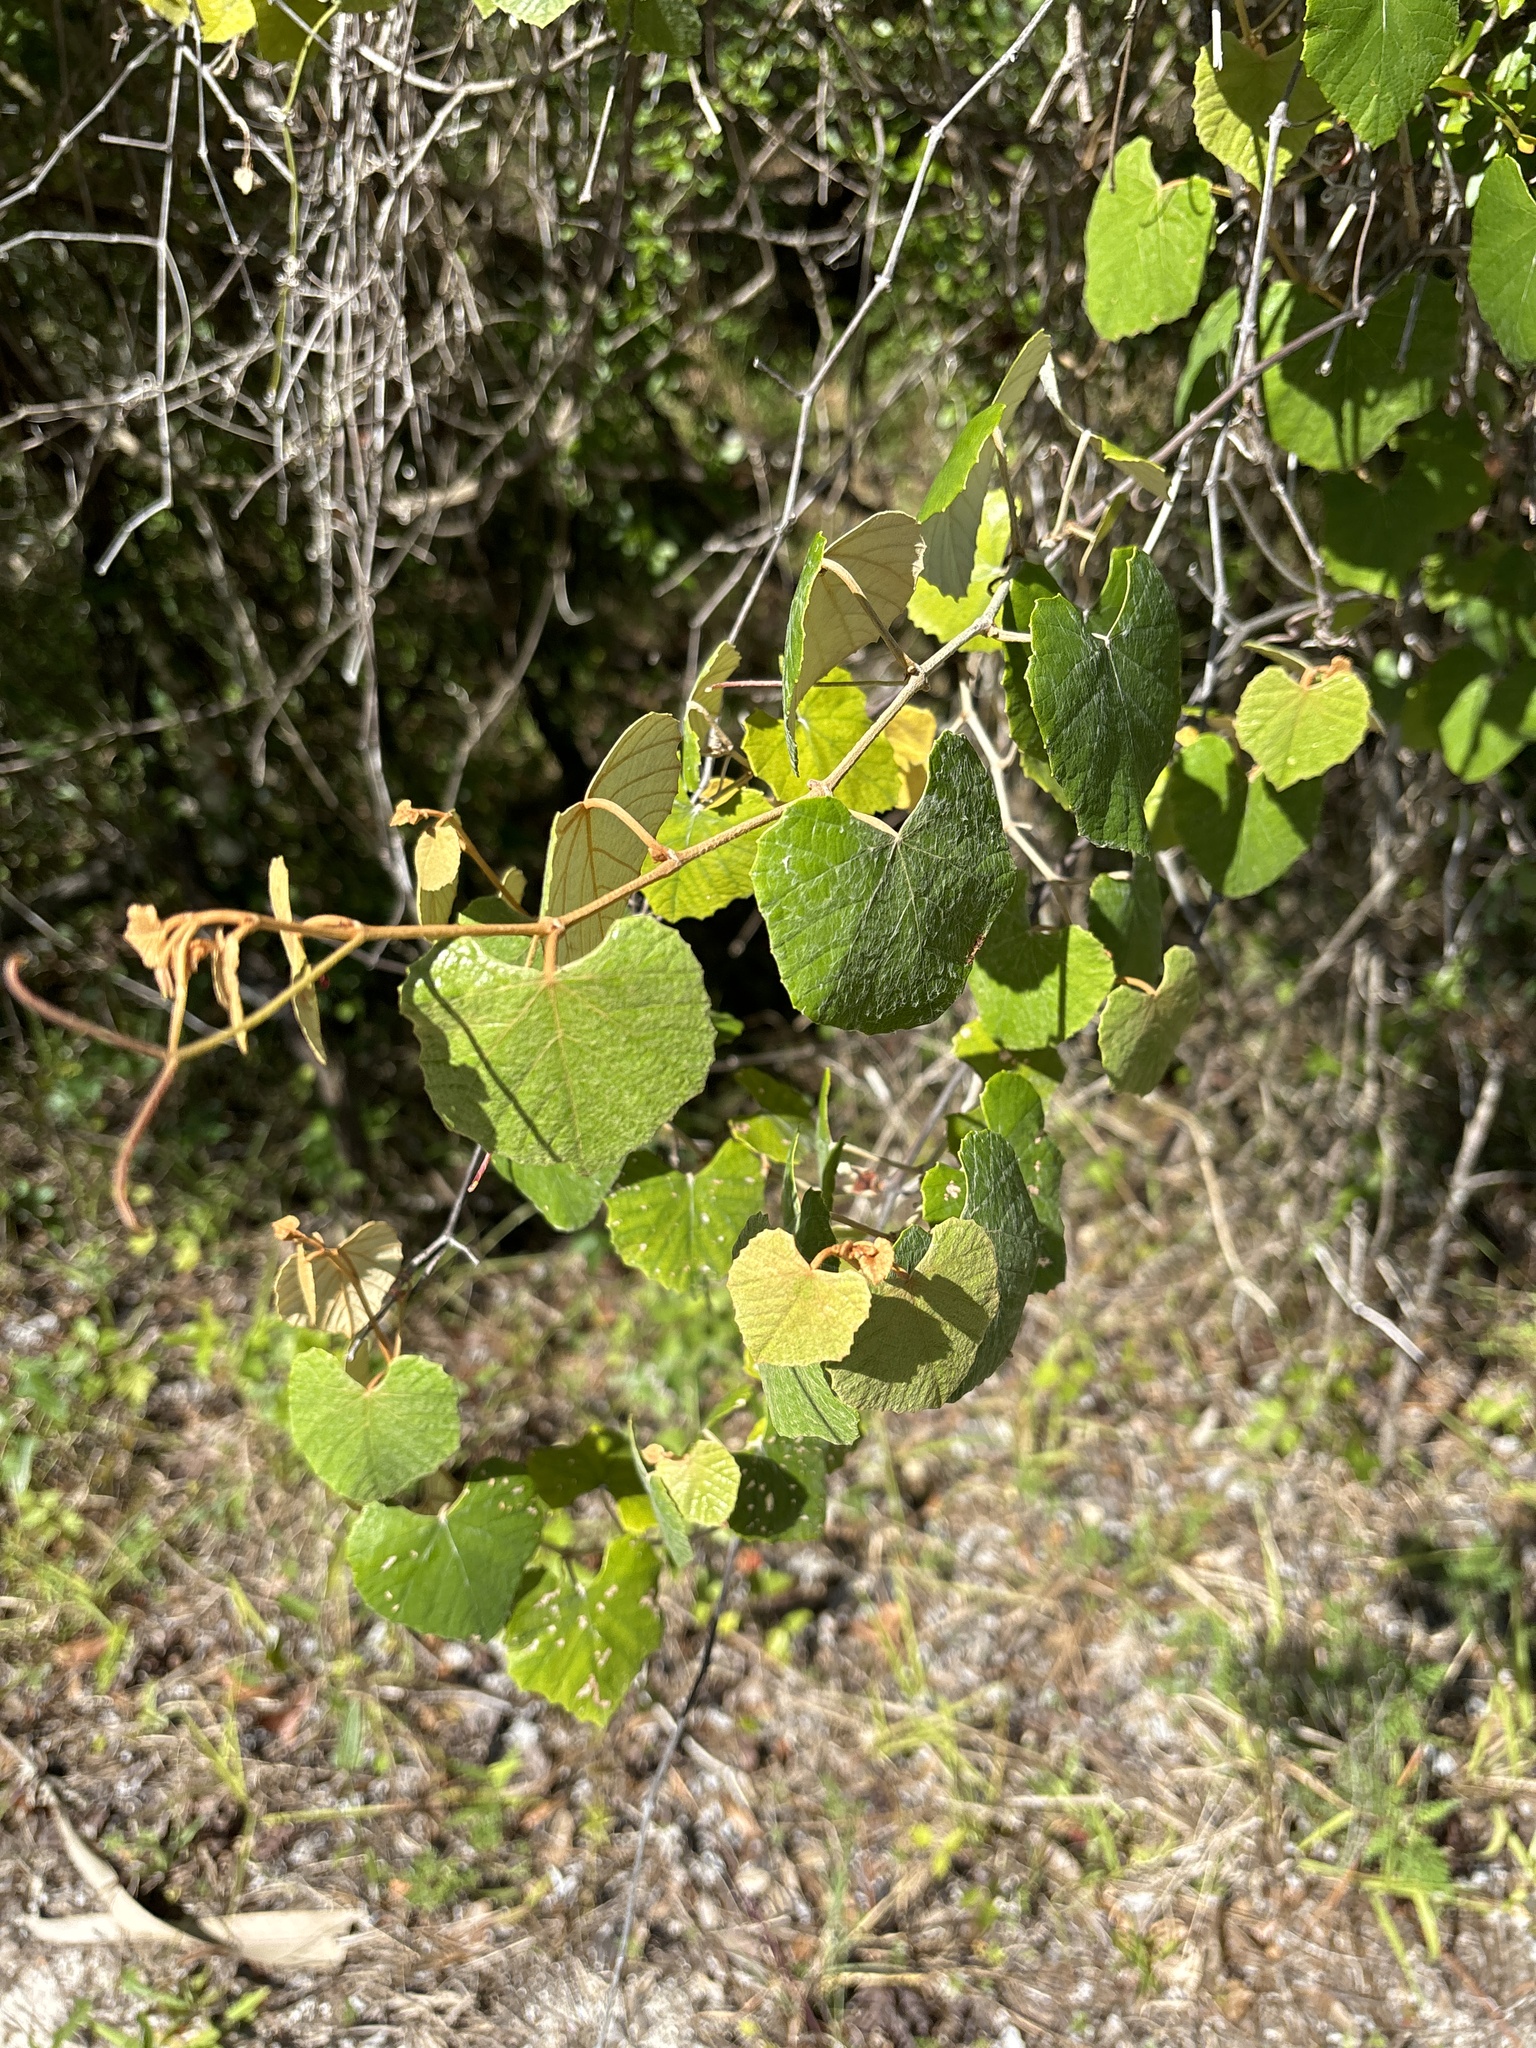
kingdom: Plantae
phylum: Tracheophyta
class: Magnoliopsida
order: Vitales
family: Vitaceae
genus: Vitis
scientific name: Vitis shuttleworthii
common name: Caloosa grape
